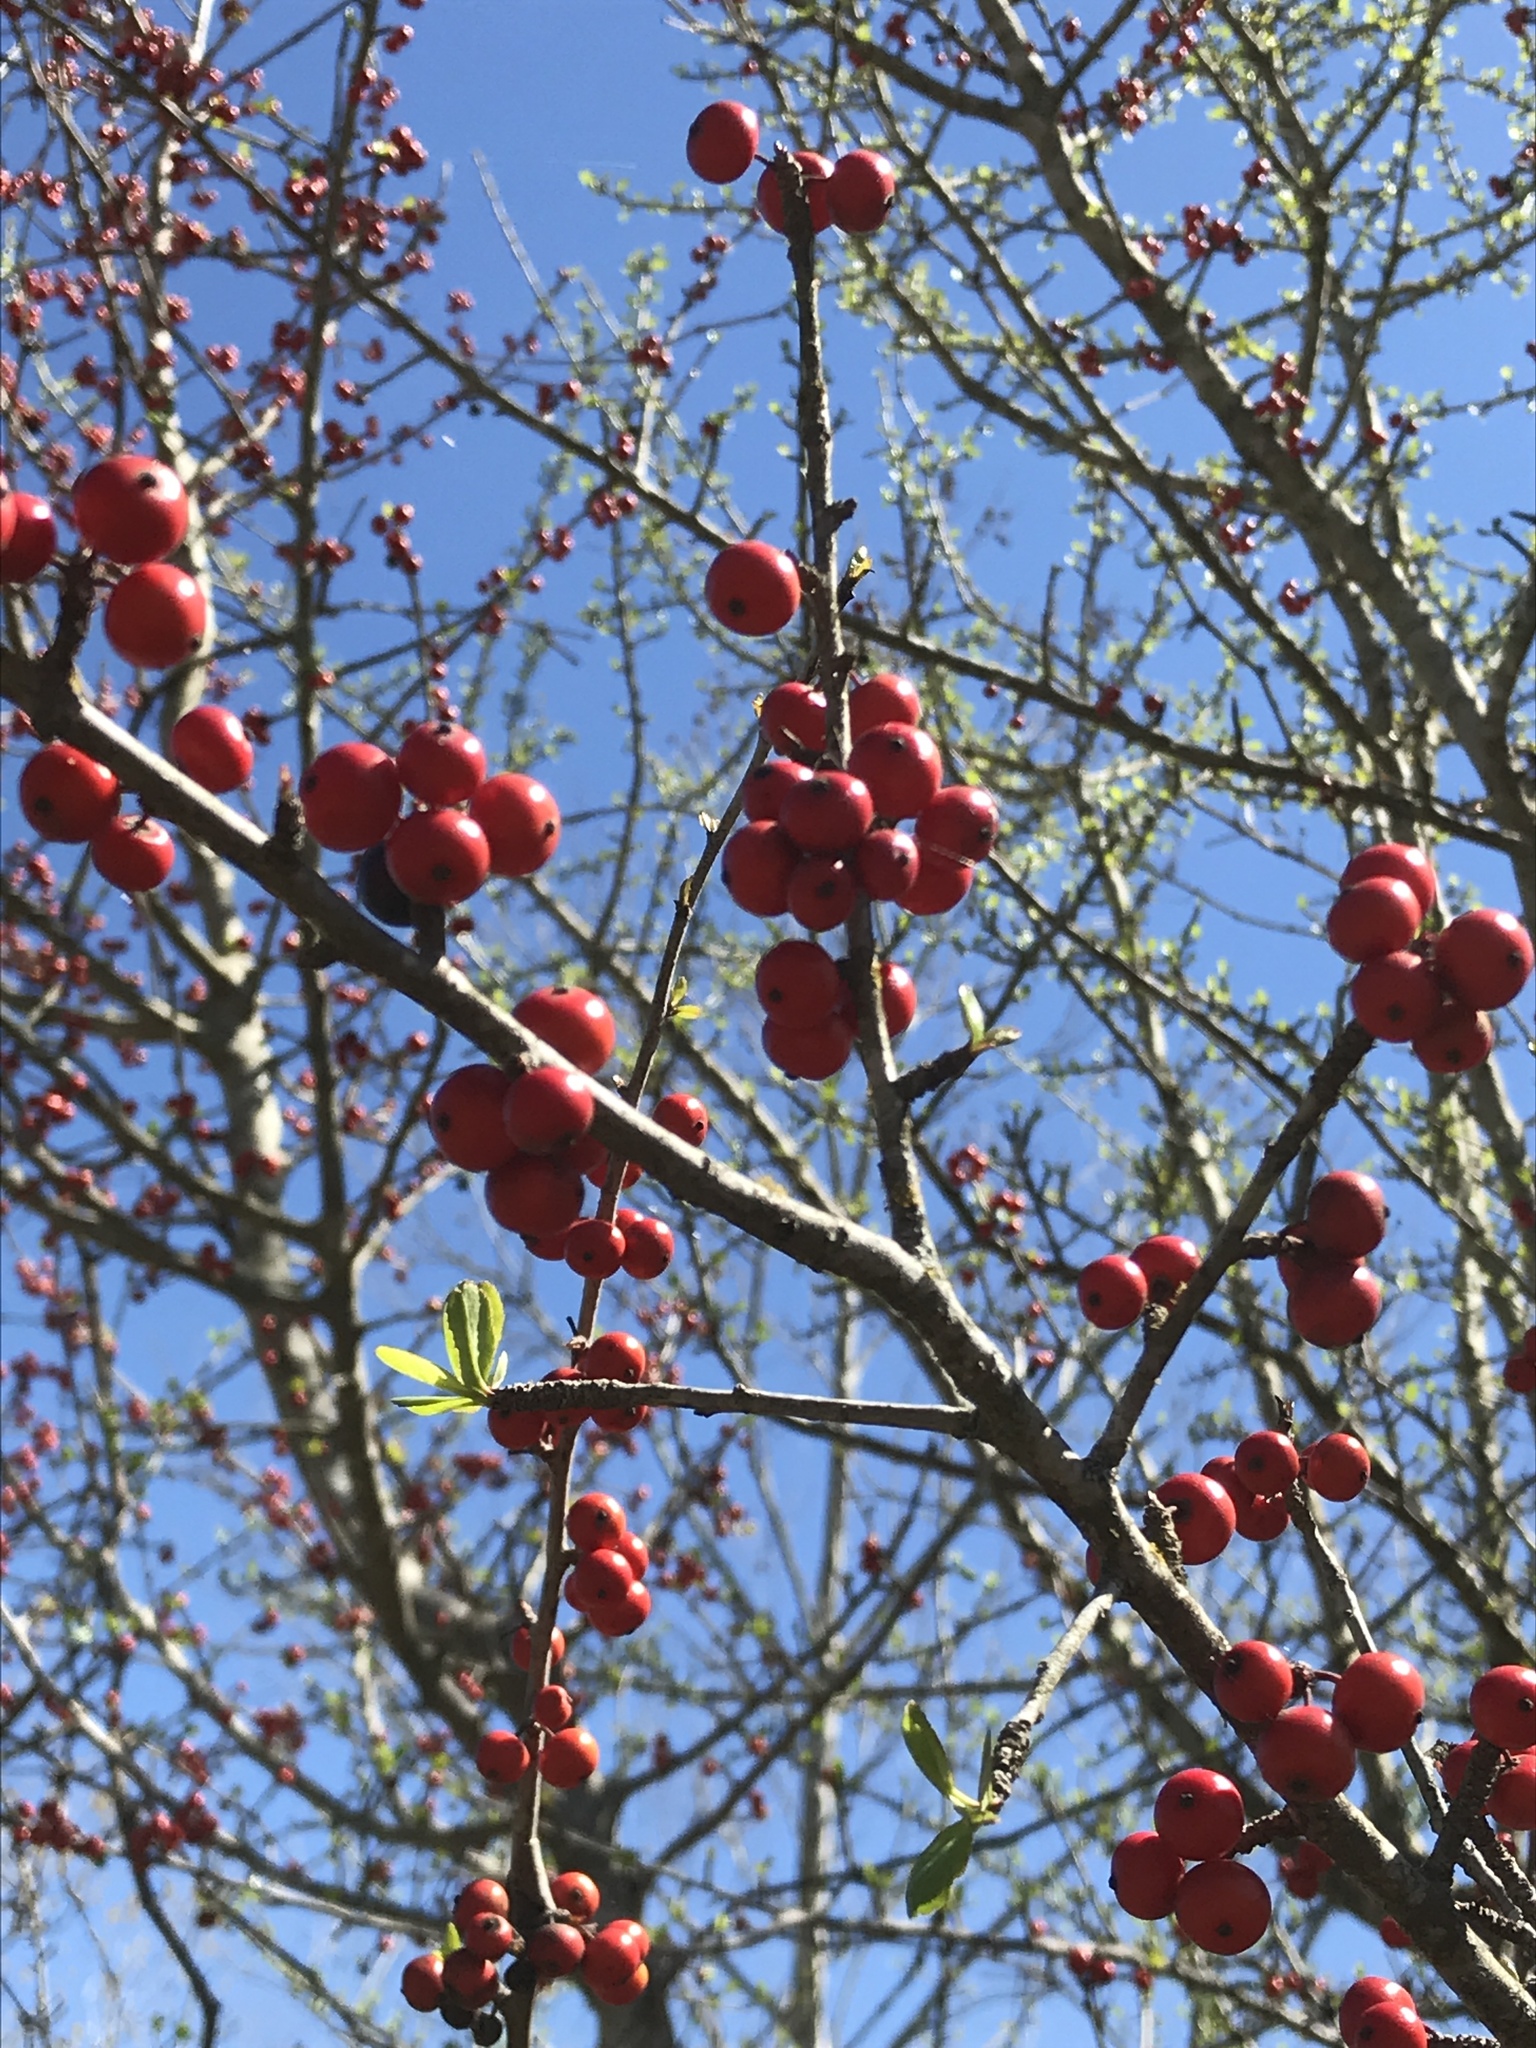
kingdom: Plantae
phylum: Tracheophyta
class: Magnoliopsida
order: Aquifoliales
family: Aquifoliaceae
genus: Ilex
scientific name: Ilex decidua
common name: Possum-haw
